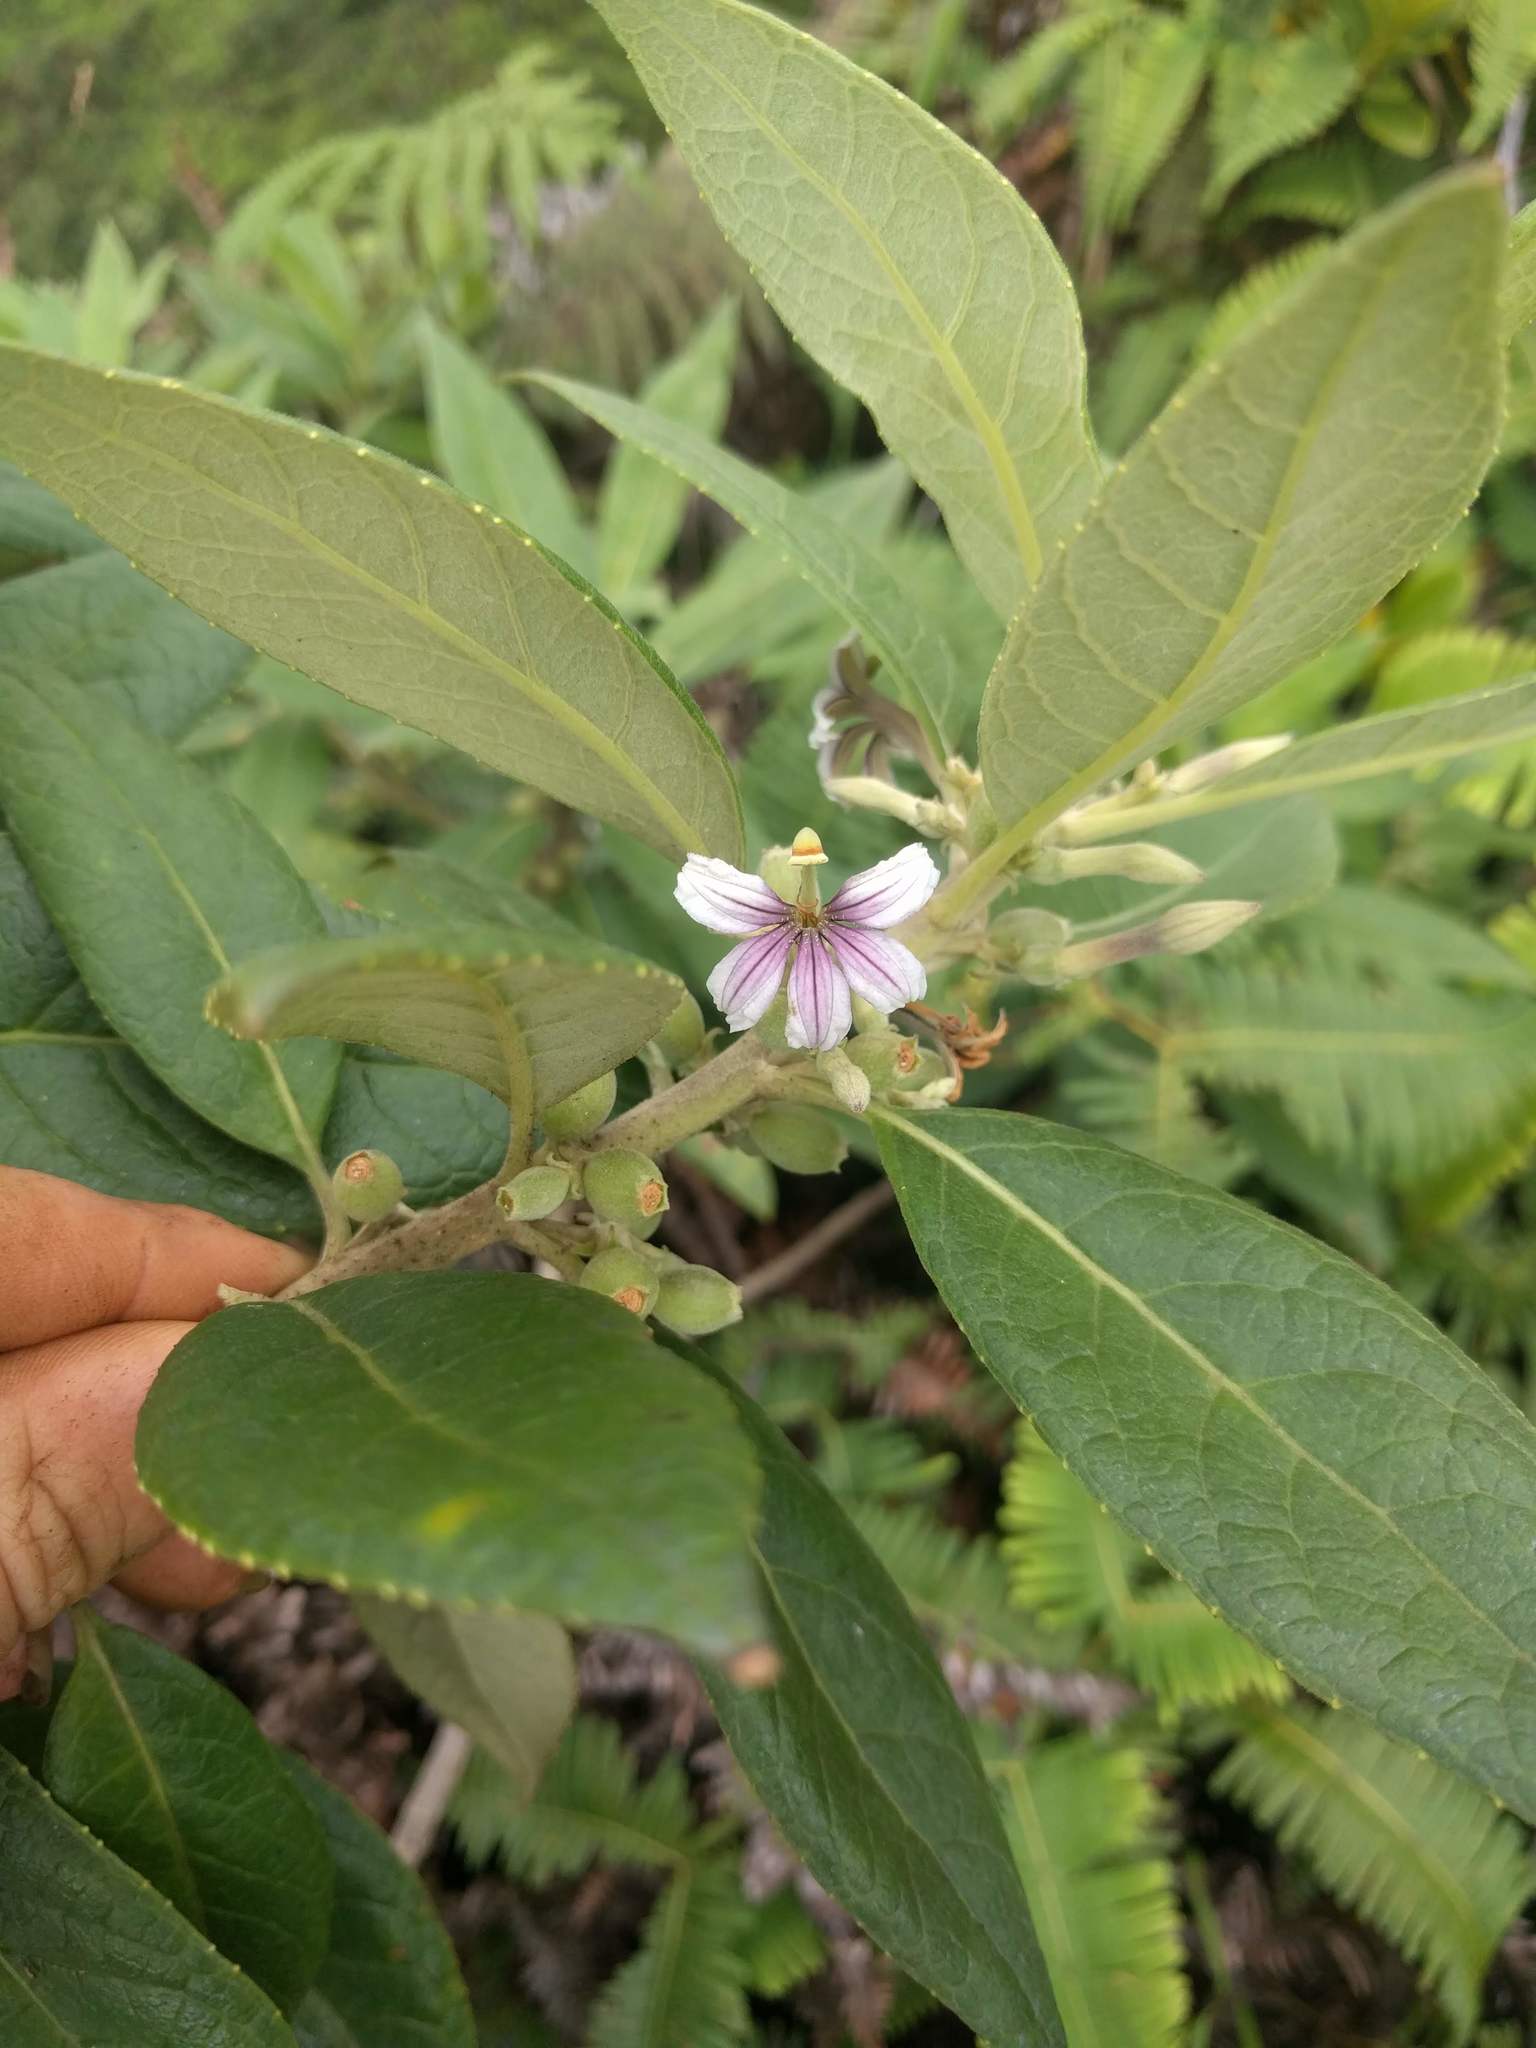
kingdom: Plantae
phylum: Tracheophyta
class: Magnoliopsida
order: Asterales
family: Goodeniaceae
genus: Scaevola
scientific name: Scaevola mollis
